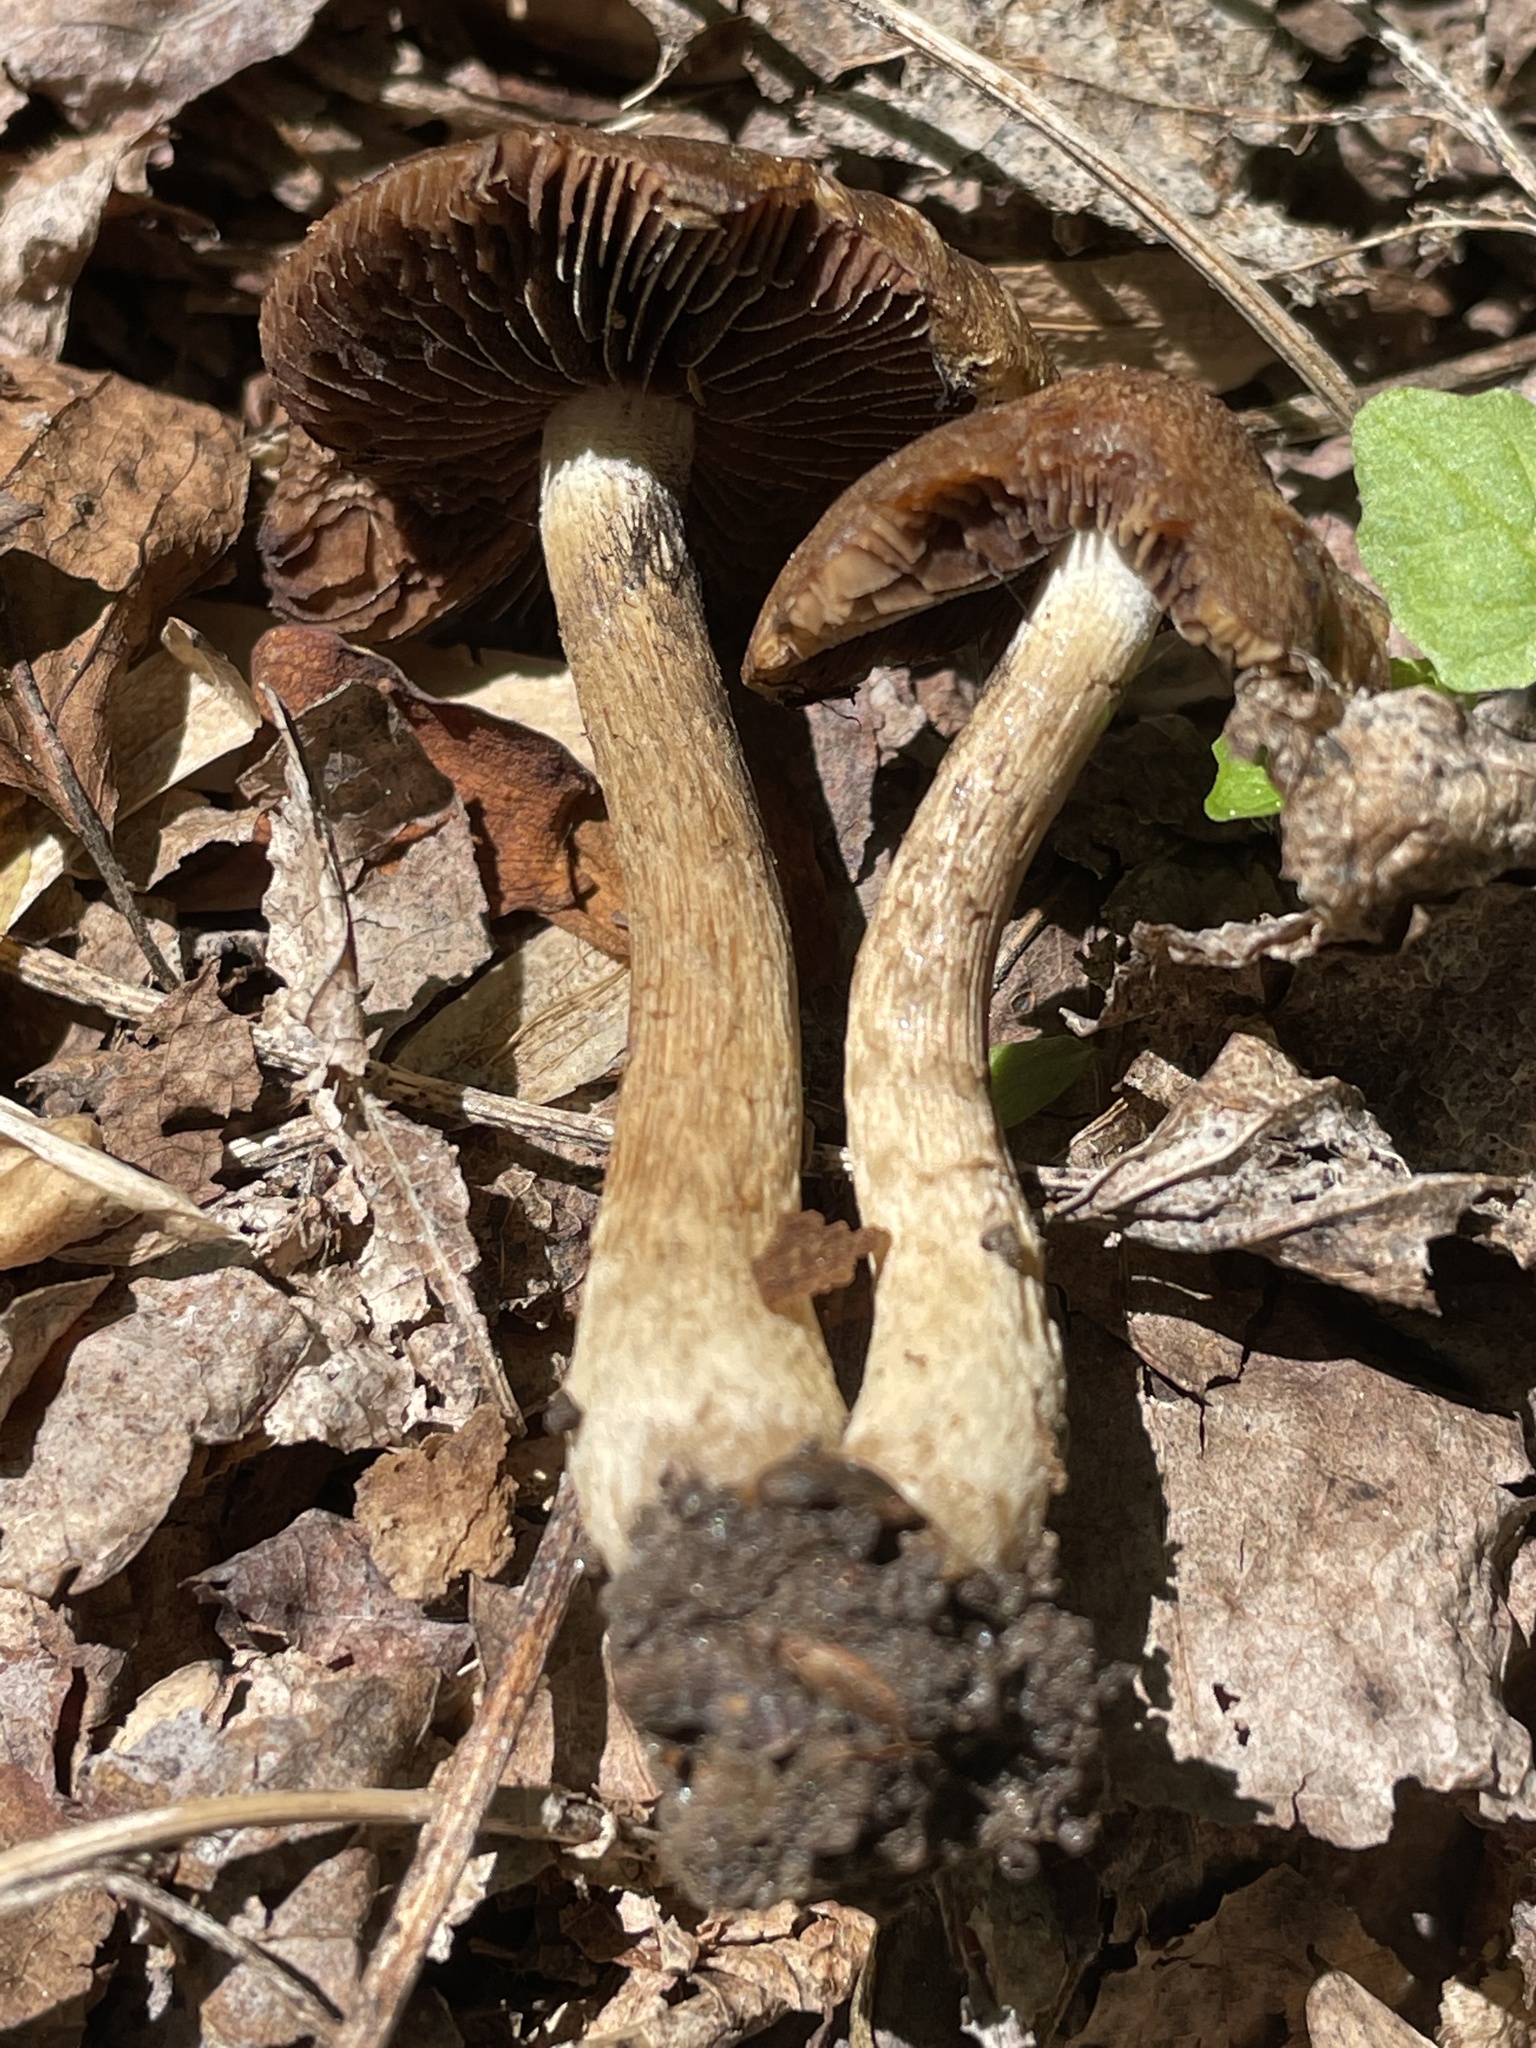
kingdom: Fungi
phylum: Basidiomycota
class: Agaricomycetes
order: Agaricales
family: Psathyrellaceae
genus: Lacrymaria
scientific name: Lacrymaria lacrymabunda
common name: Weeping widow
